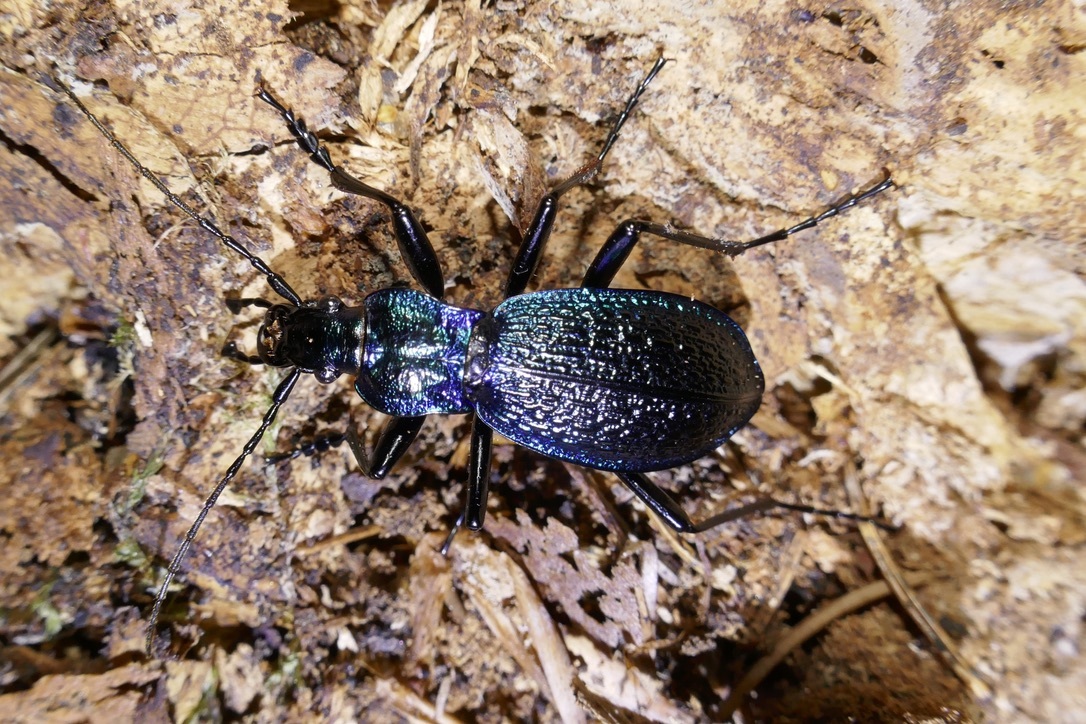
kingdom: Animalia
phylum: Arthropoda
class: Insecta
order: Coleoptera
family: Carabidae
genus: Carabus
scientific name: Carabus intricatus
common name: Blue ground beetle
